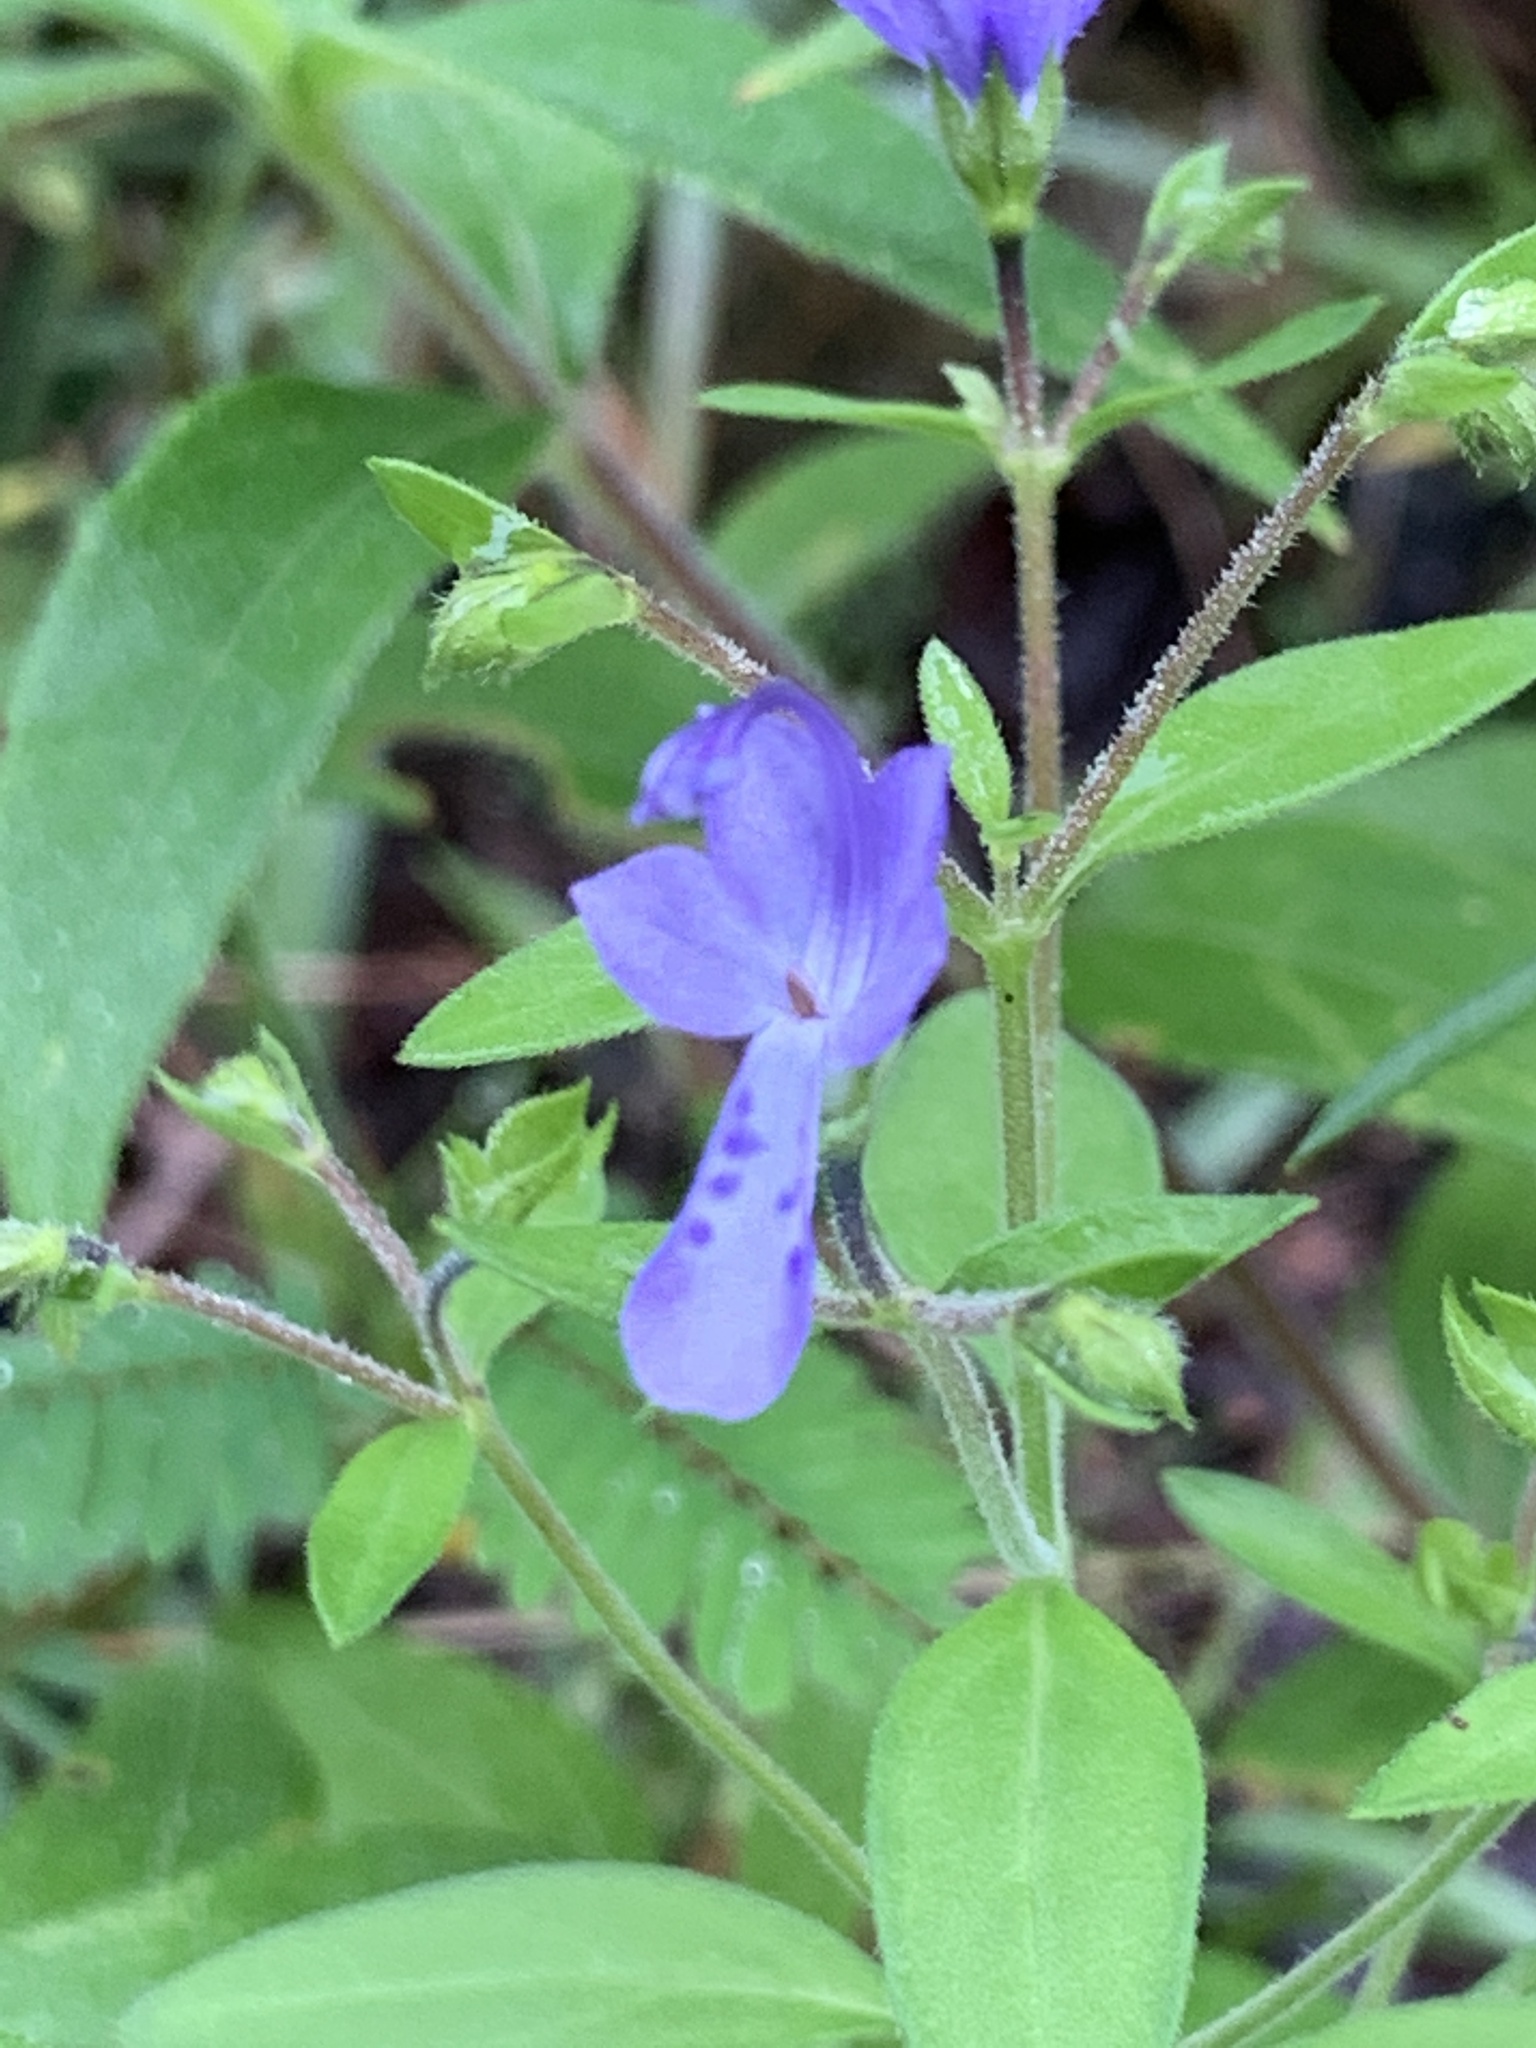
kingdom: Plantae
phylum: Tracheophyta
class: Magnoliopsida
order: Lamiales
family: Lamiaceae
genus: Trichostema
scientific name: Trichostema dichotomum
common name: Bastard pennyroyal
